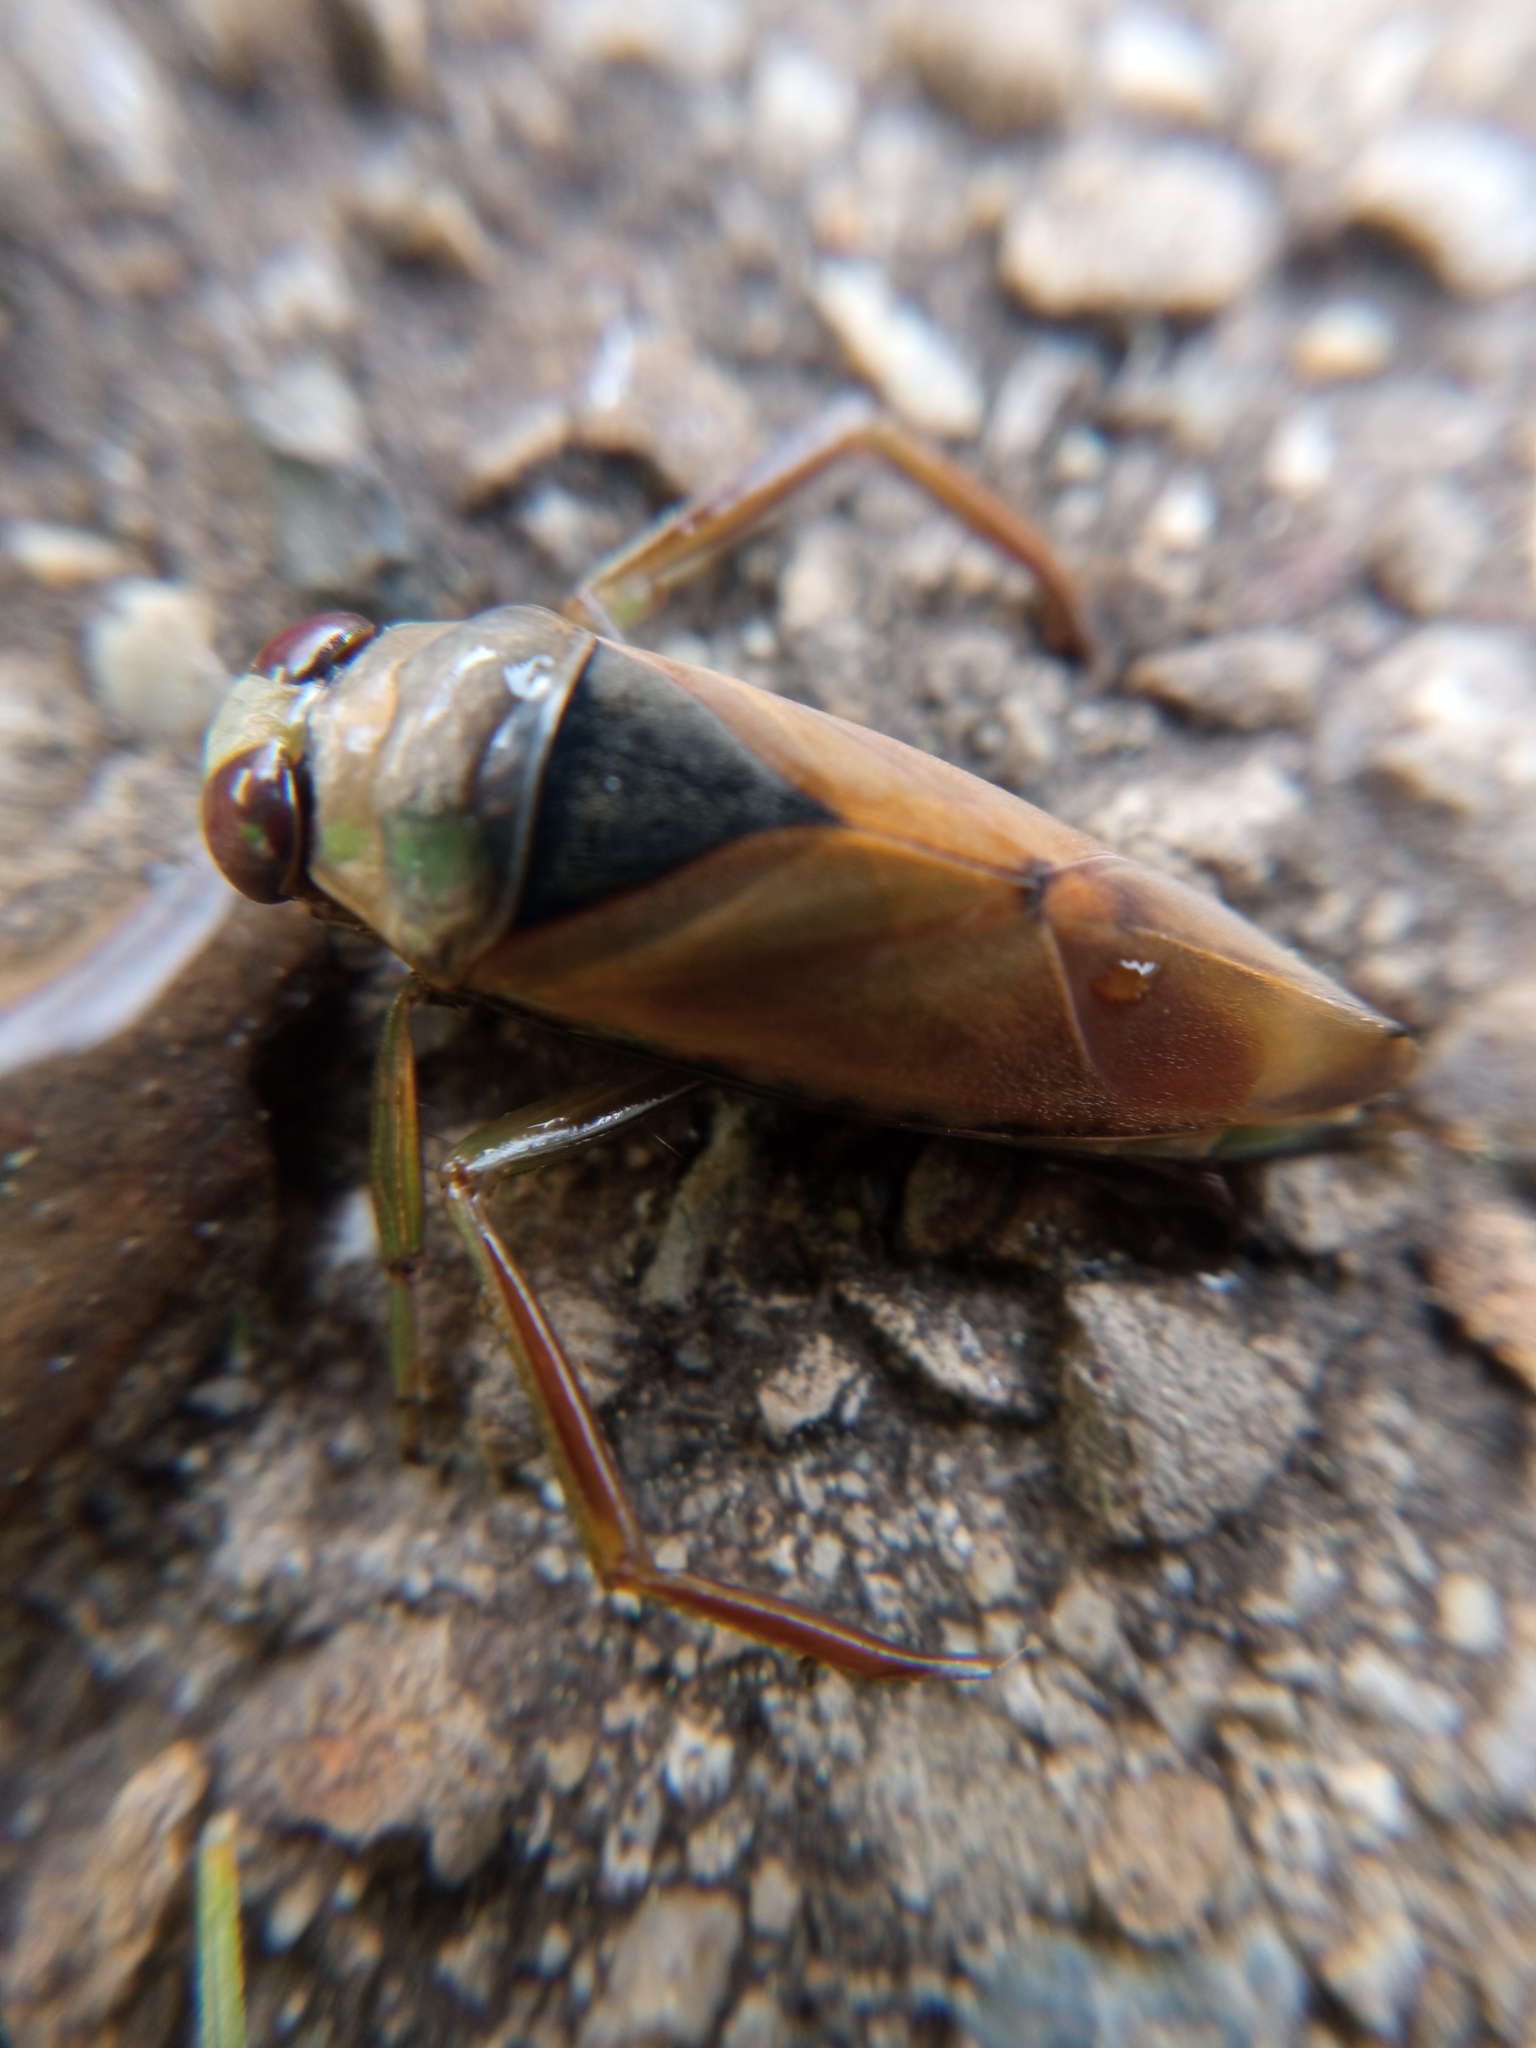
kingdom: Animalia
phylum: Arthropoda
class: Insecta
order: Hemiptera
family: Notonectidae
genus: Notonecta
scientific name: Notonecta glauca
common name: Common water-boatman
